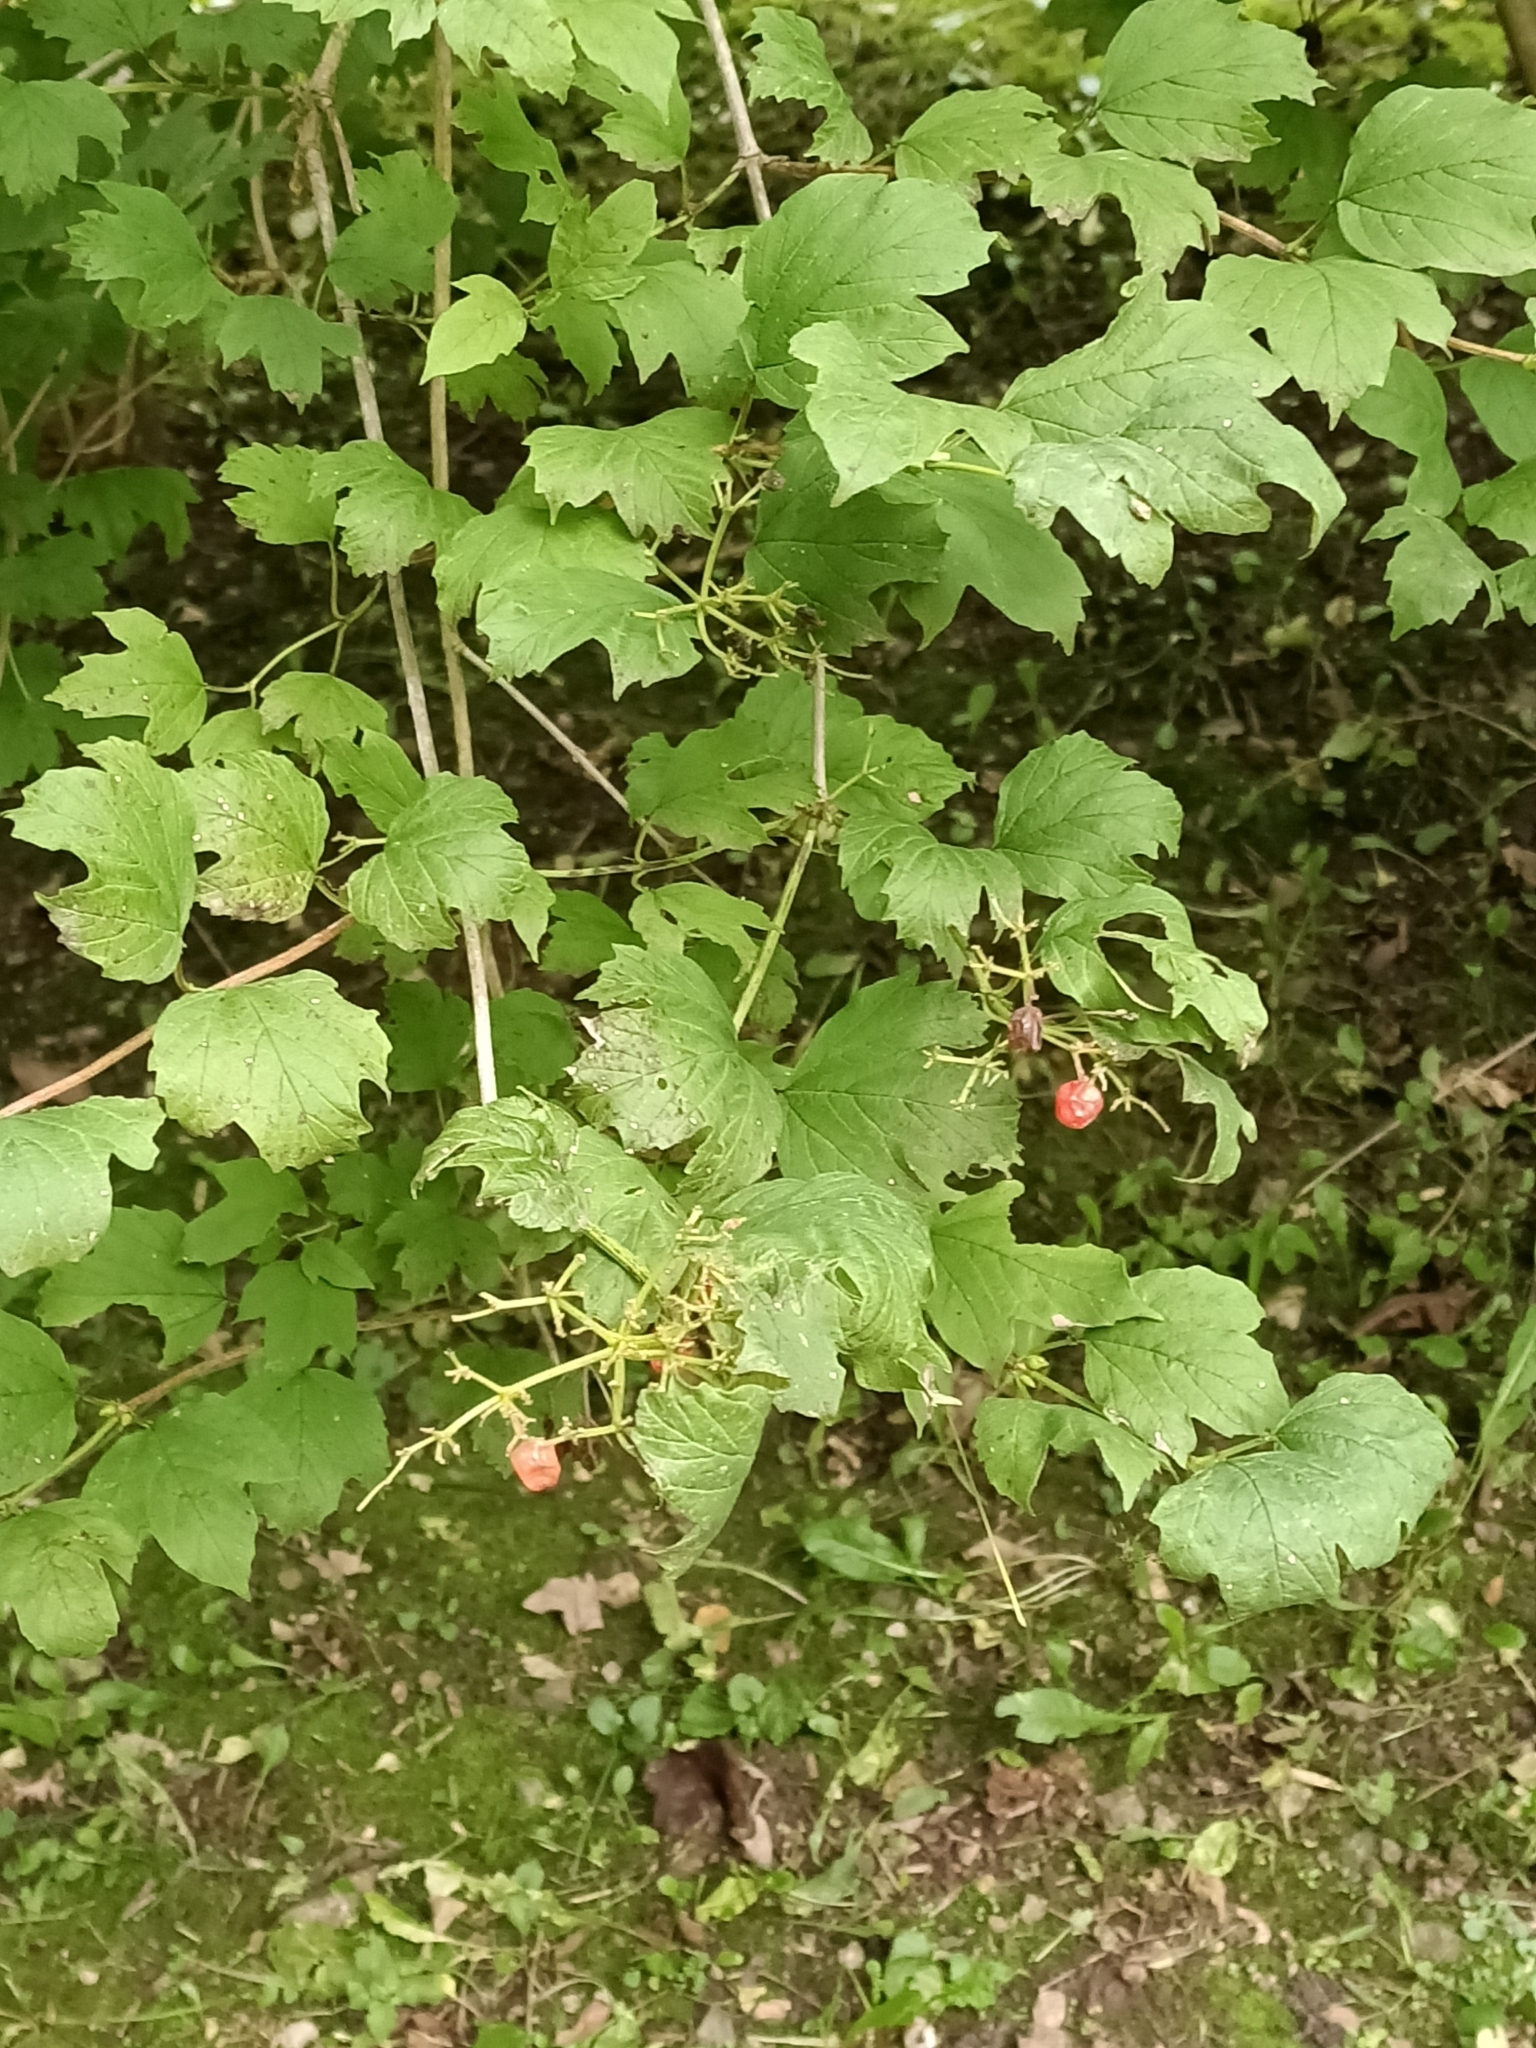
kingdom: Plantae
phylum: Tracheophyta
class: Magnoliopsida
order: Dipsacales
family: Viburnaceae
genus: Viburnum
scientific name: Viburnum opulus
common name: Guelder-rose
